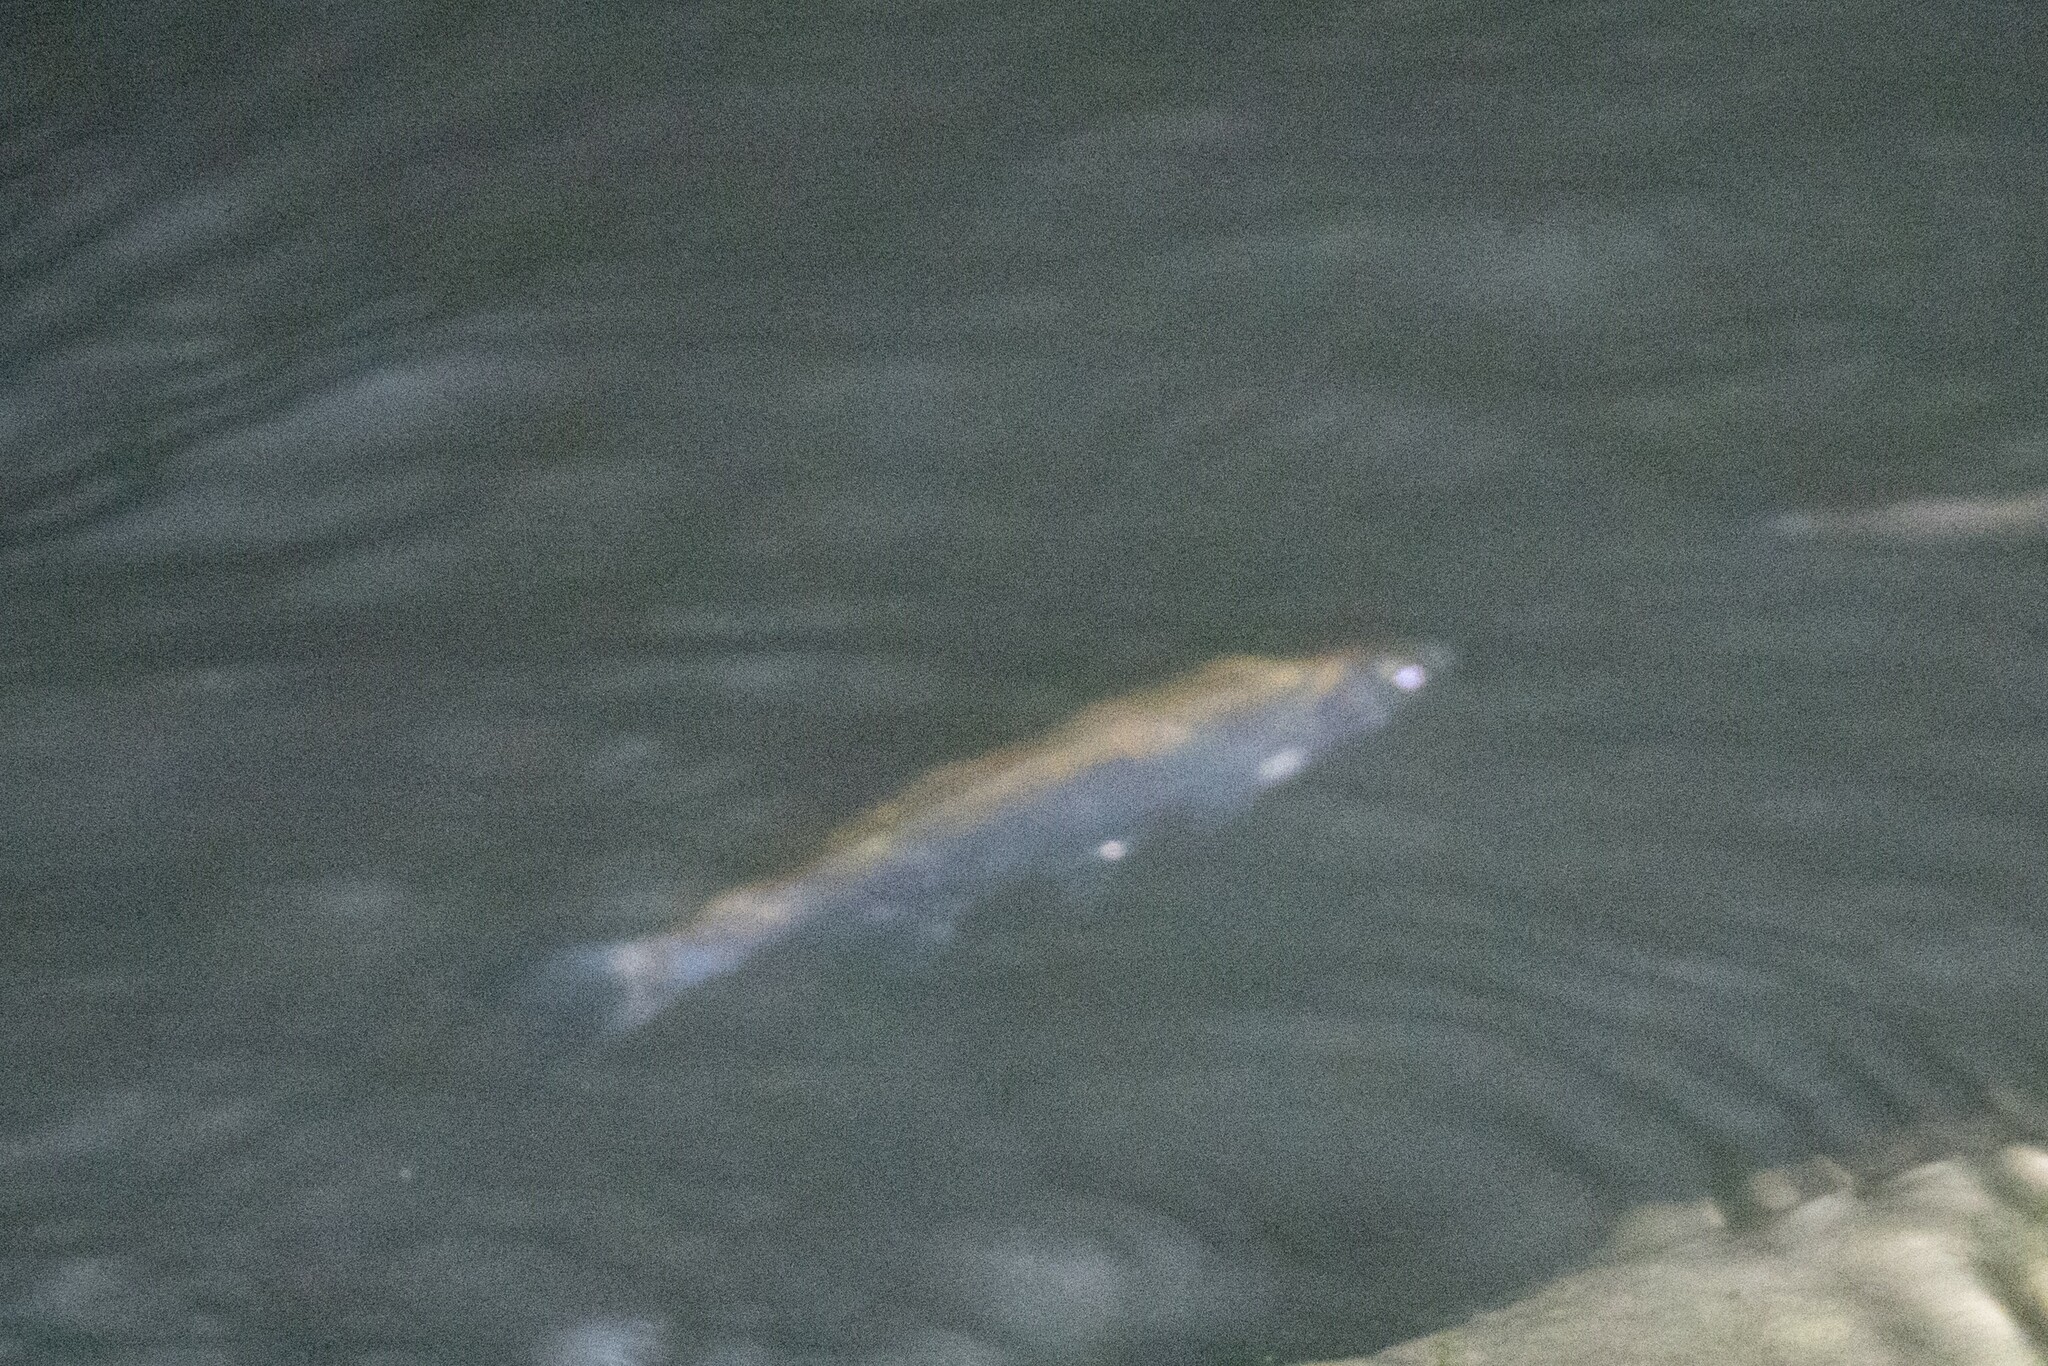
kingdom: Animalia
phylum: Chordata
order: Cypriniformes
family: Cyprinidae
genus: Alburnus
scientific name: Alburnus alburnus
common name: Bleak
